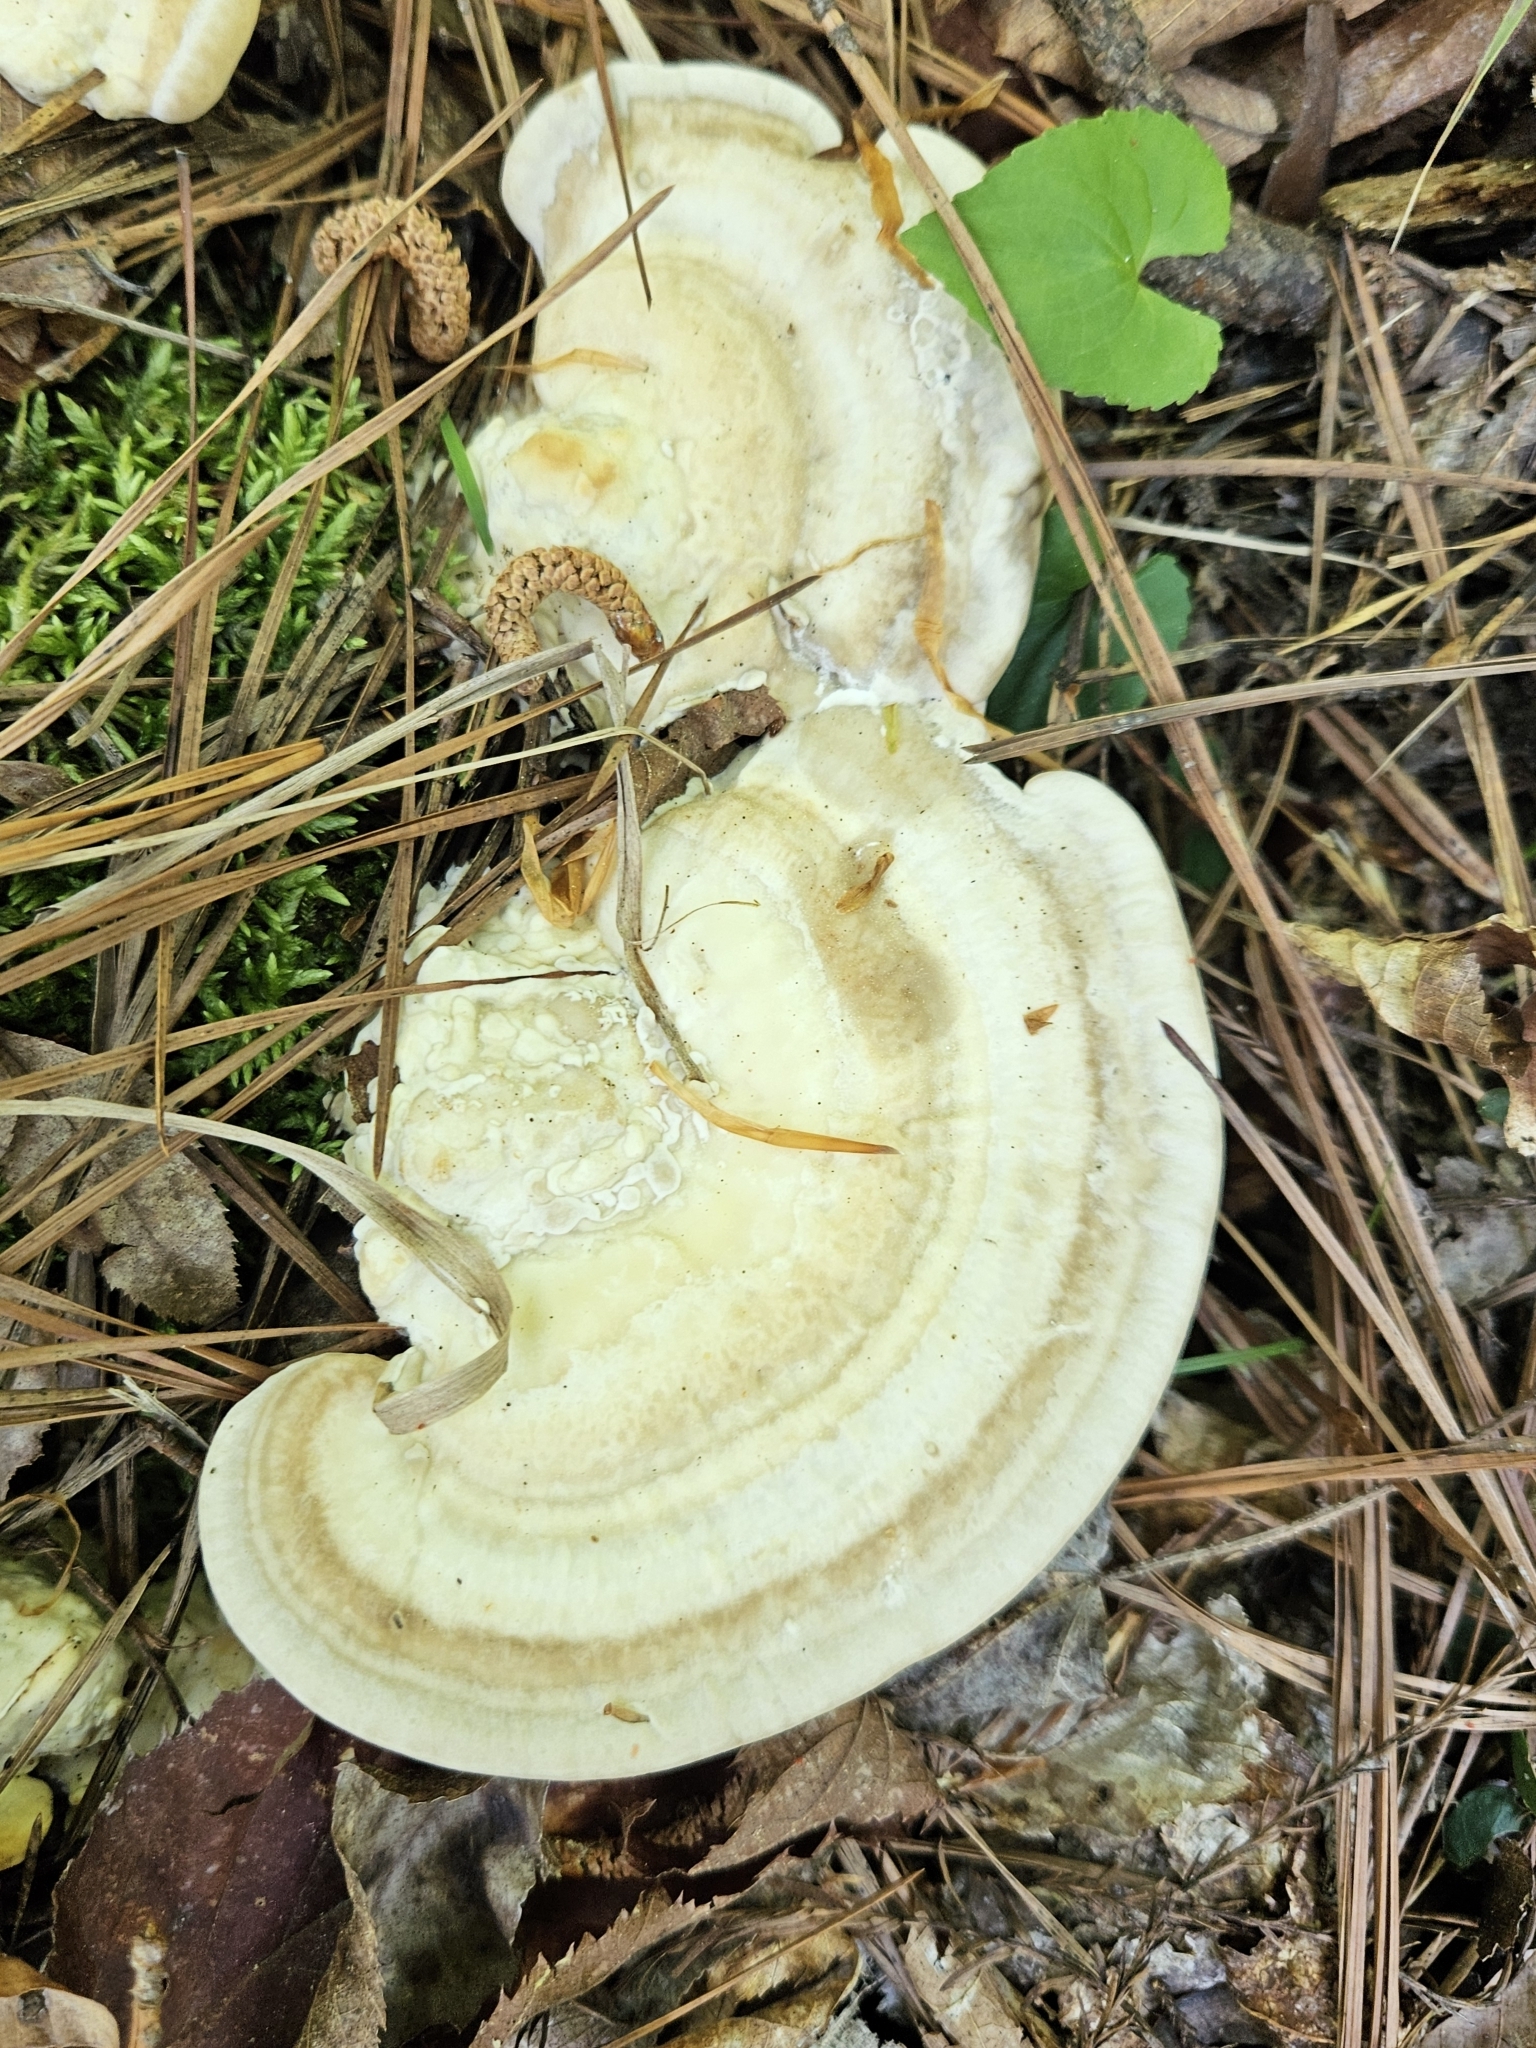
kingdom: Fungi
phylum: Basidiomycota
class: Agaricomycetes
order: Polyporales
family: Polyporaceae
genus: Trametes
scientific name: Trametes lactinea
